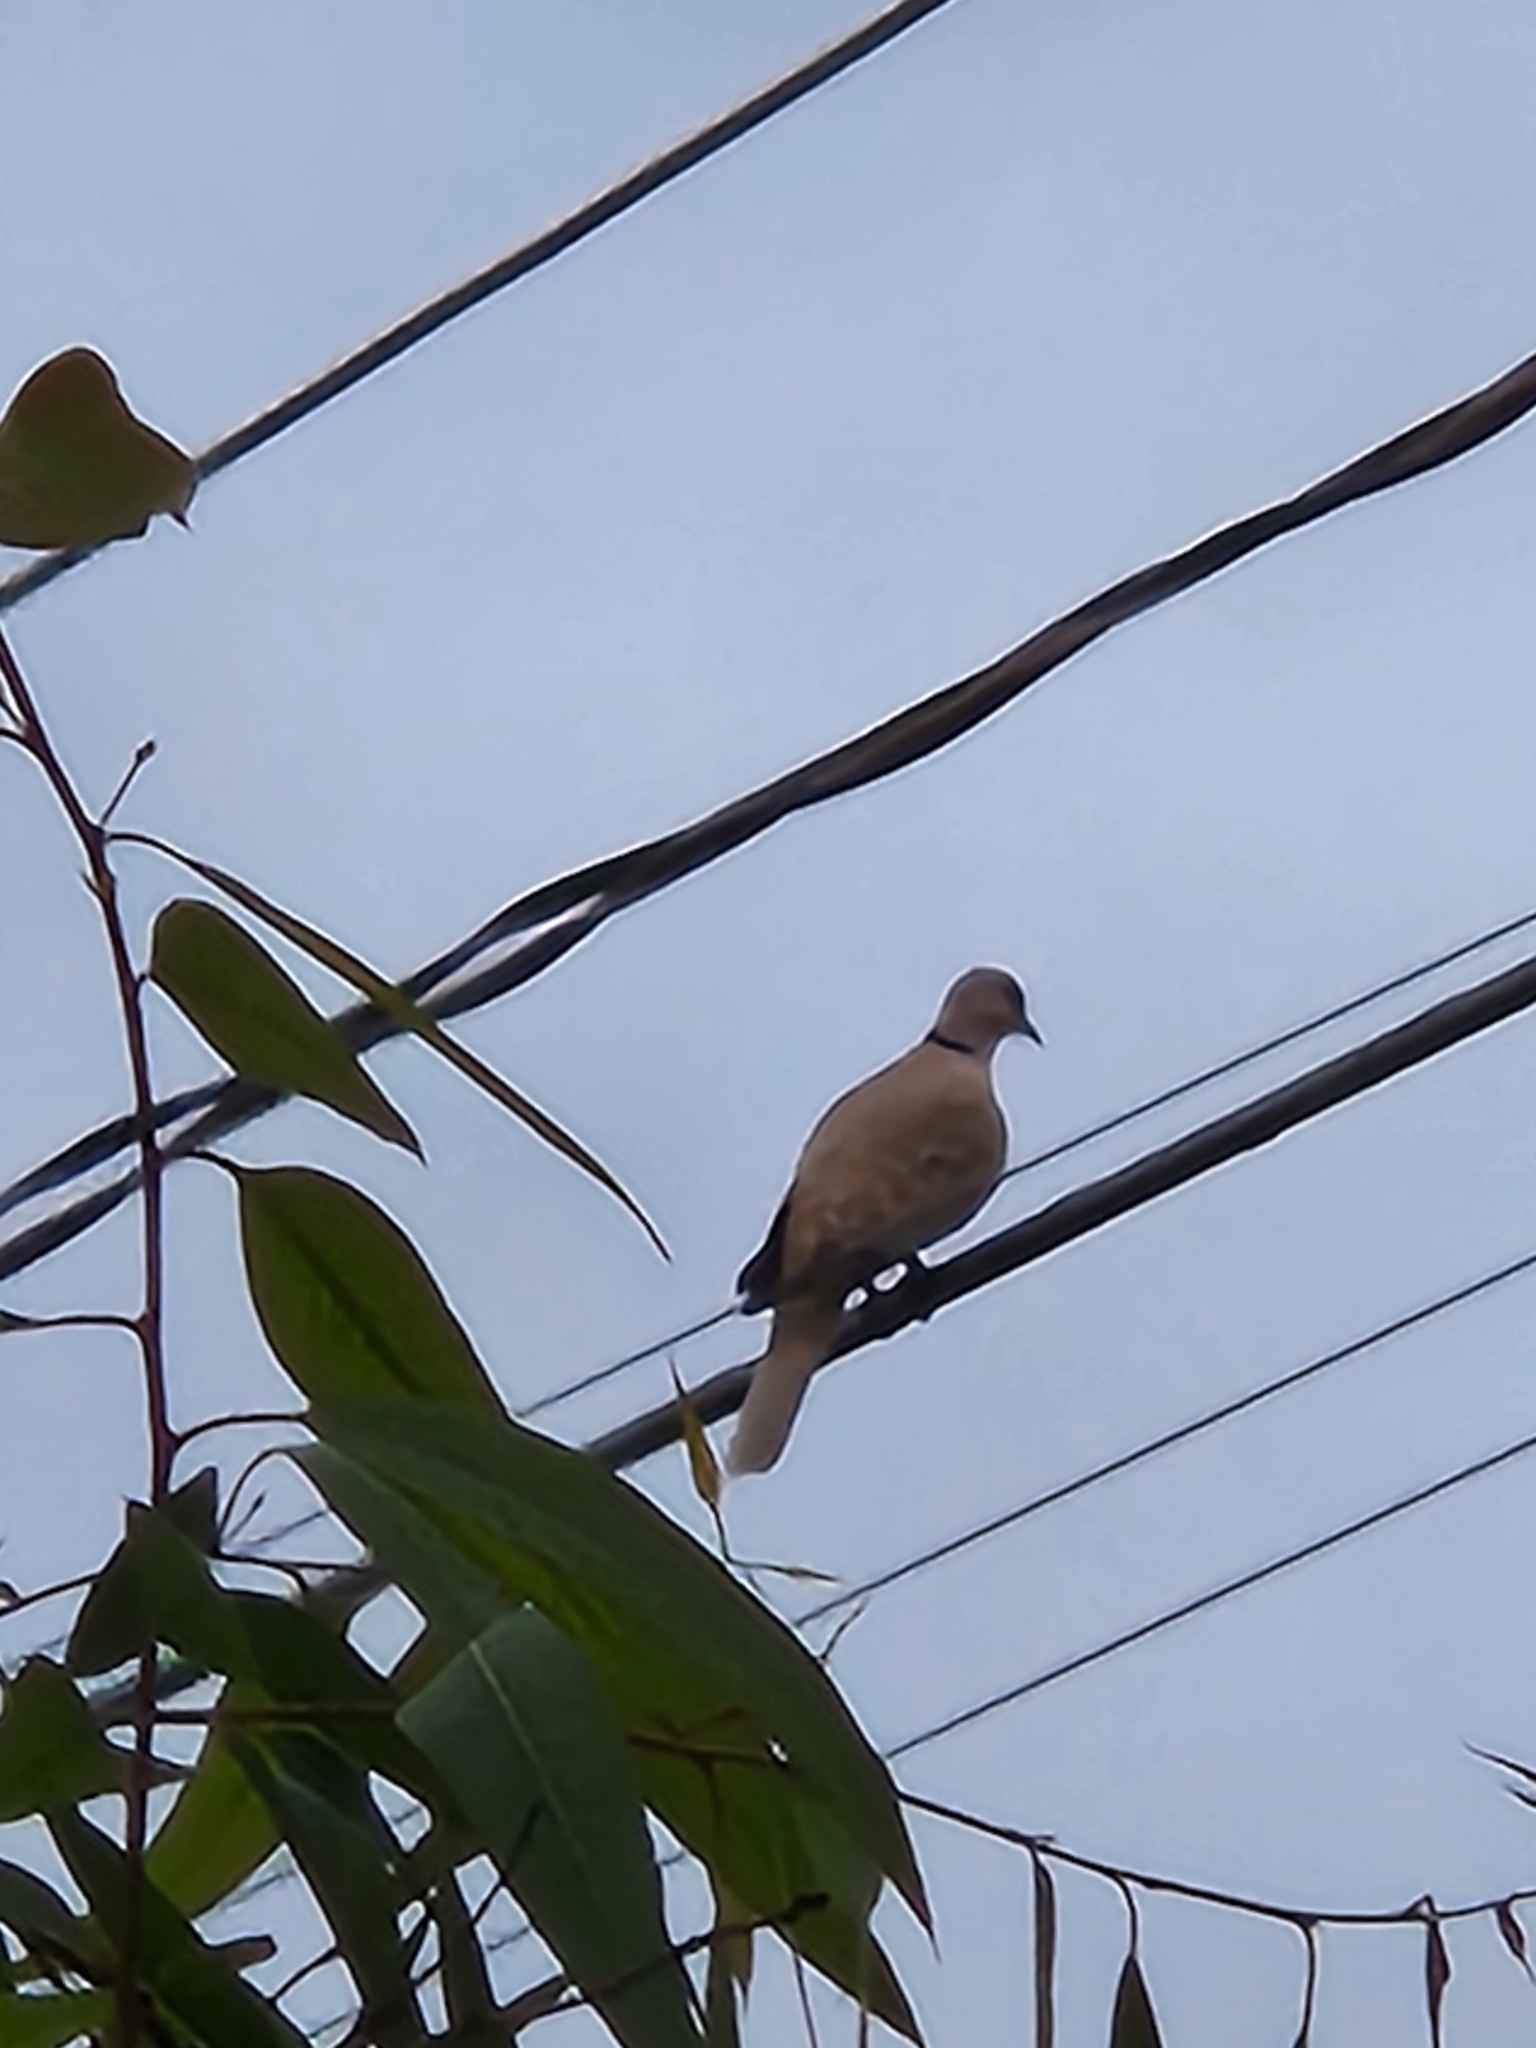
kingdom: Animalia
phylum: Chordata
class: Aves
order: Columbiformes
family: Columbidae
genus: Streptopelia
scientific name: Streptopelia decaocto
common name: Eurasian collared dove
